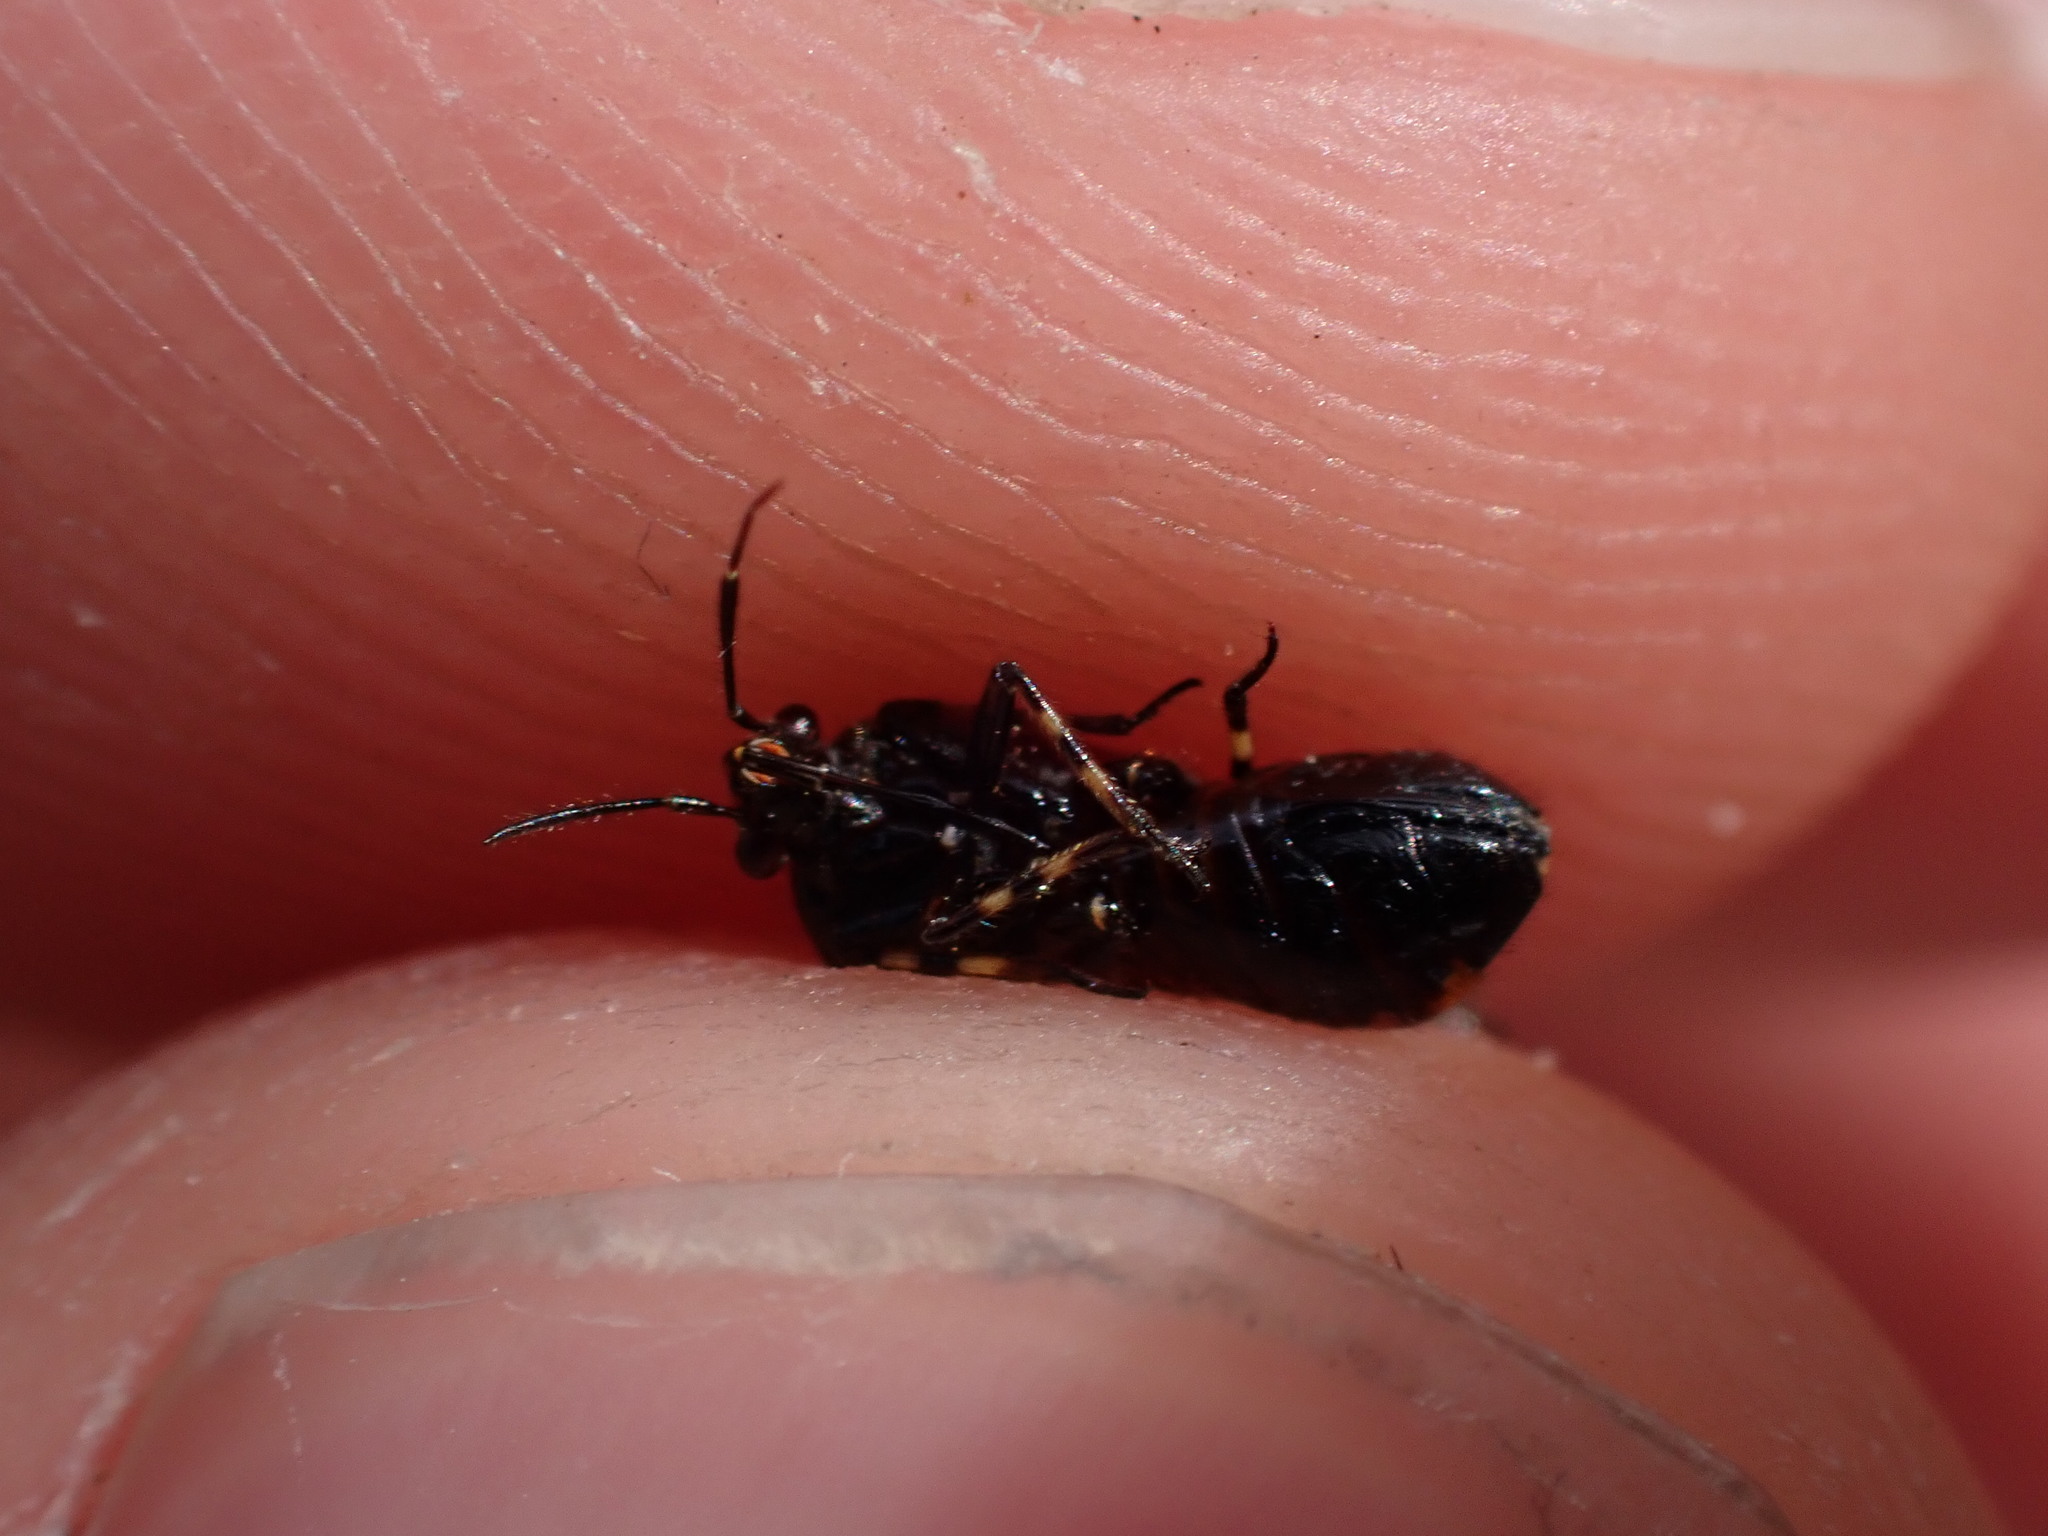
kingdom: Animalia
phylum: Arthropoda
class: Insecta
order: Hemiptera
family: Miridae
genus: Deraeocoris
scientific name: Deraeocoris schach
